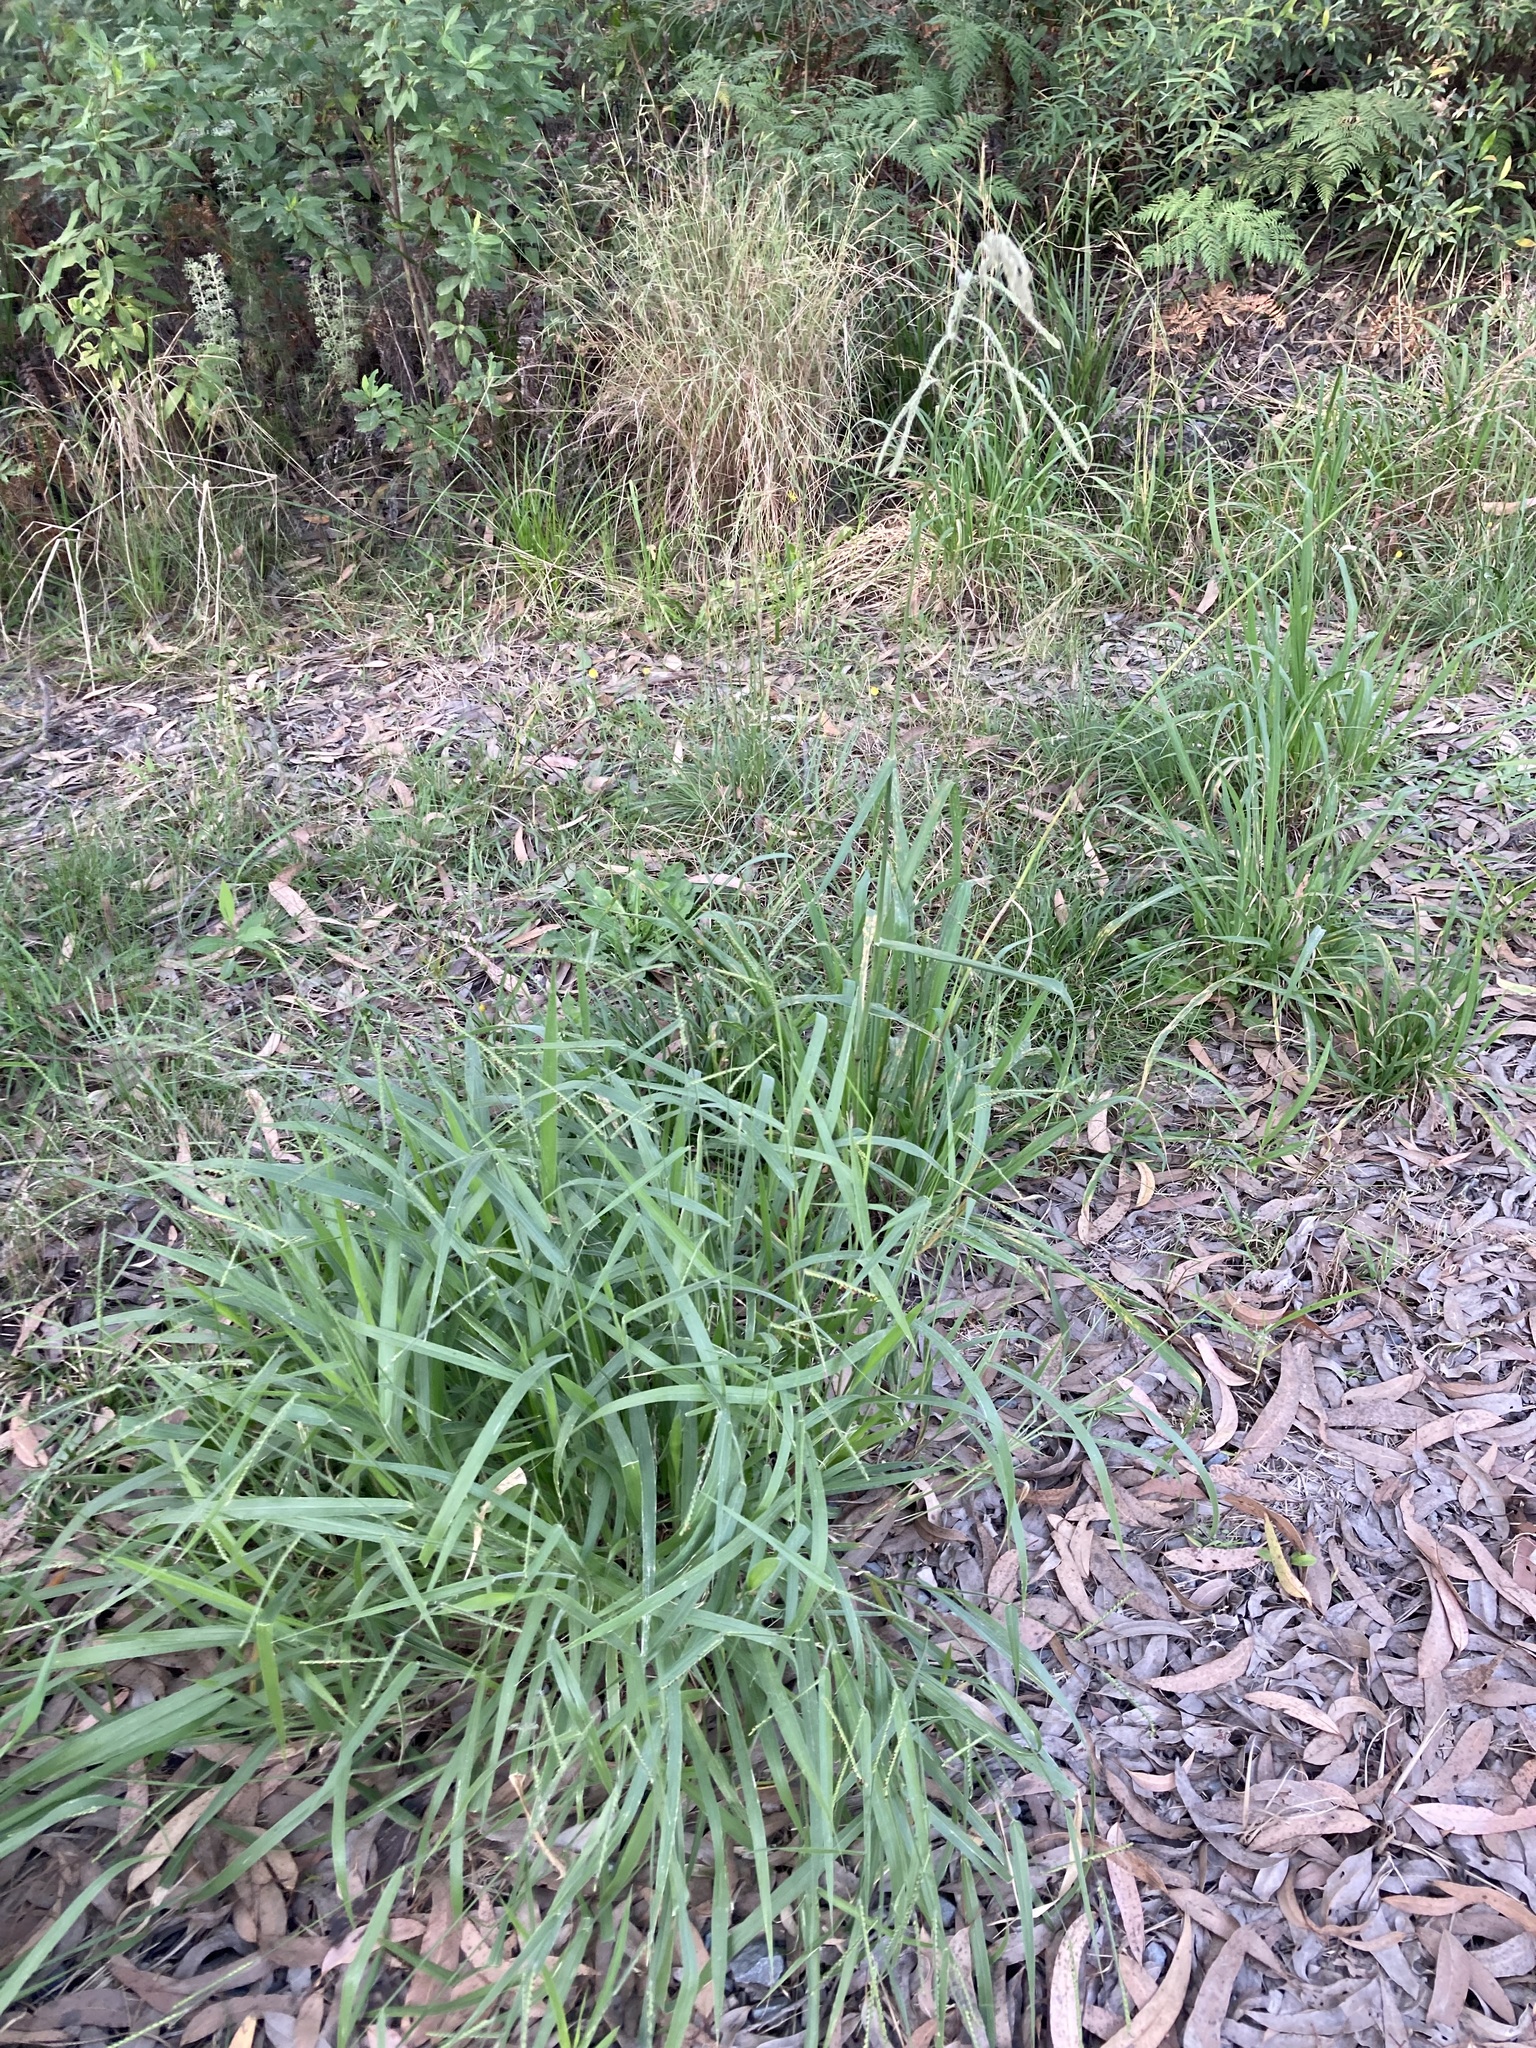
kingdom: Plantae
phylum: Tracheophyta
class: Liliopsida
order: Poales
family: Poaceae
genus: Paspalum
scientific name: Paspalum urvillei
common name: Vasey's grass
